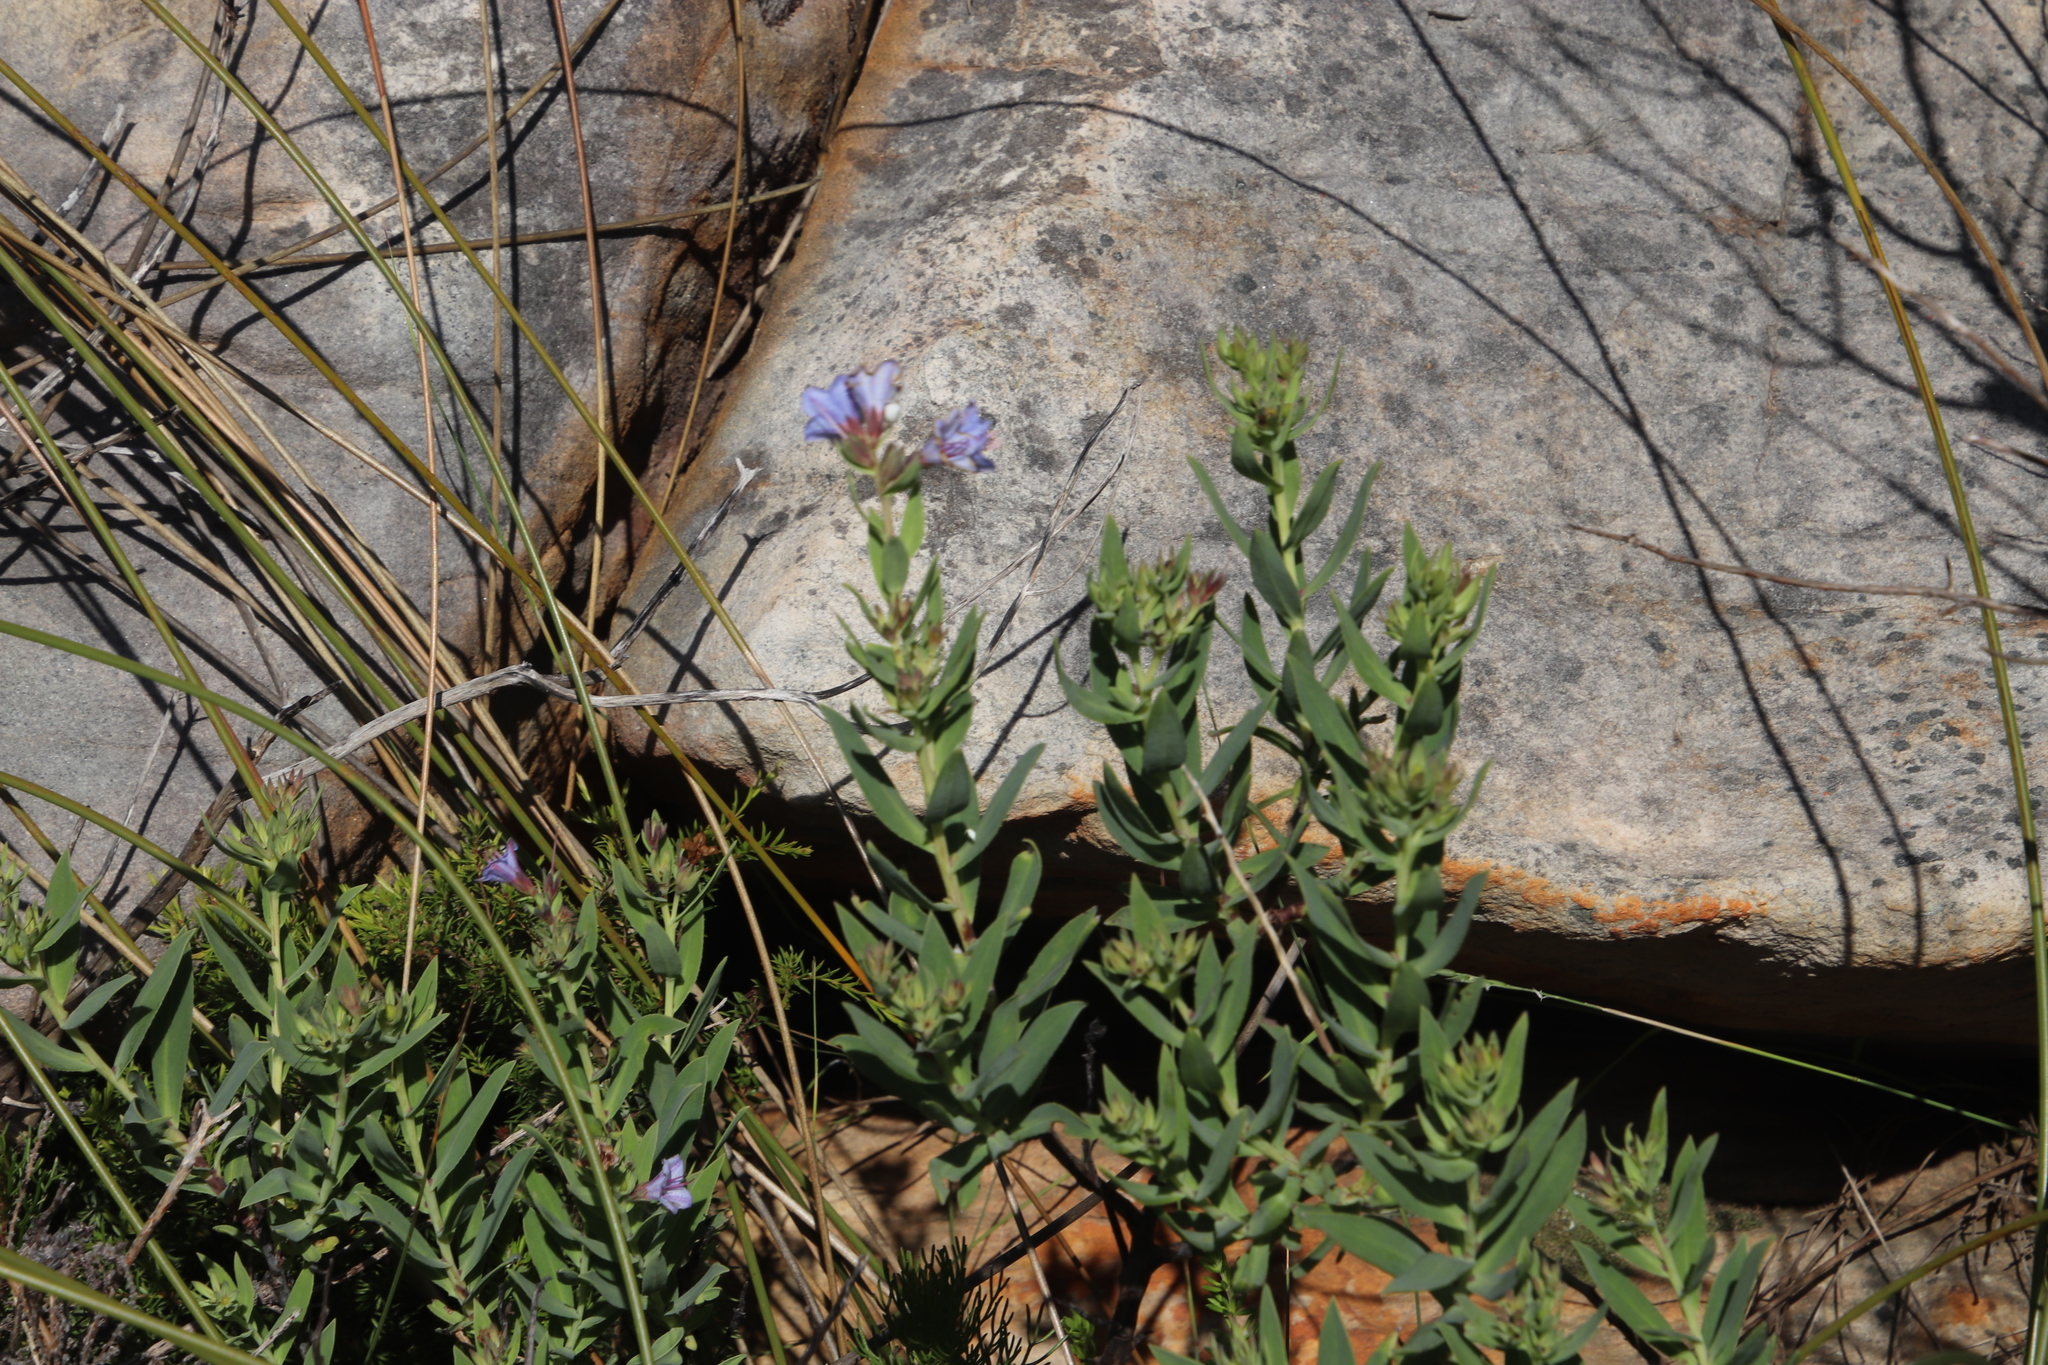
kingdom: Plantae
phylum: Tracheophyta
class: Magnoliopsida
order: Boraginales
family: Boraginaceae
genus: Lobostemon
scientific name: Lobostemon glaucophyllus
